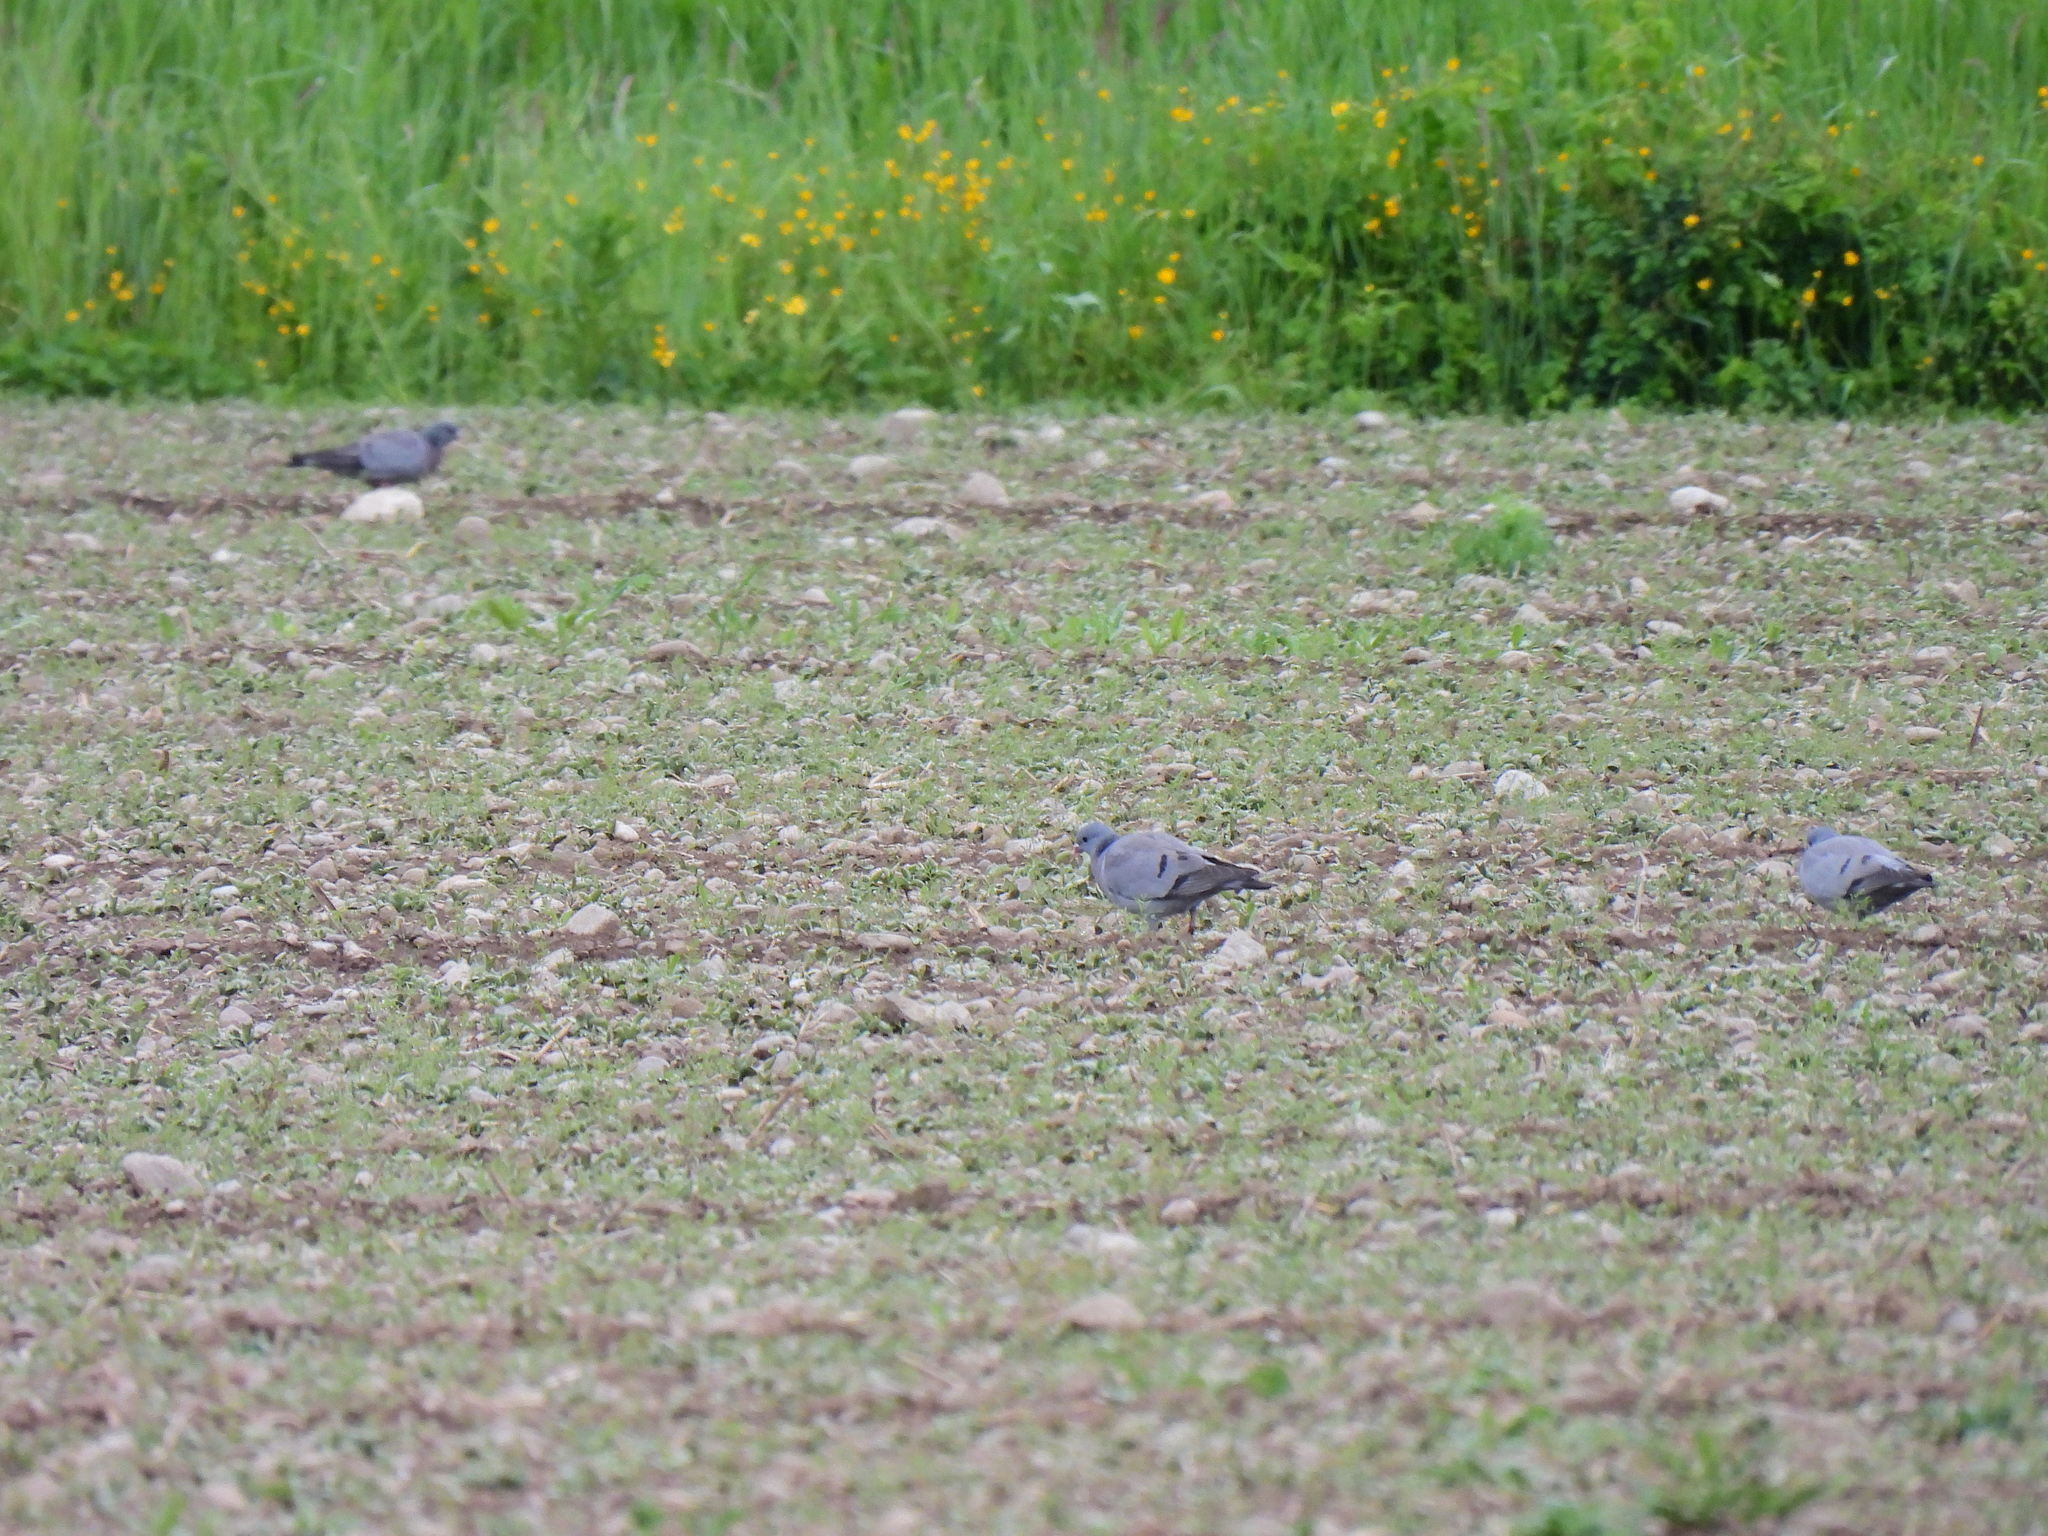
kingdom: Animalia
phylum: Chordata
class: Aves
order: Columbiformes
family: Columbidae
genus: Columba
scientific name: Columba oenas
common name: Stock dove
